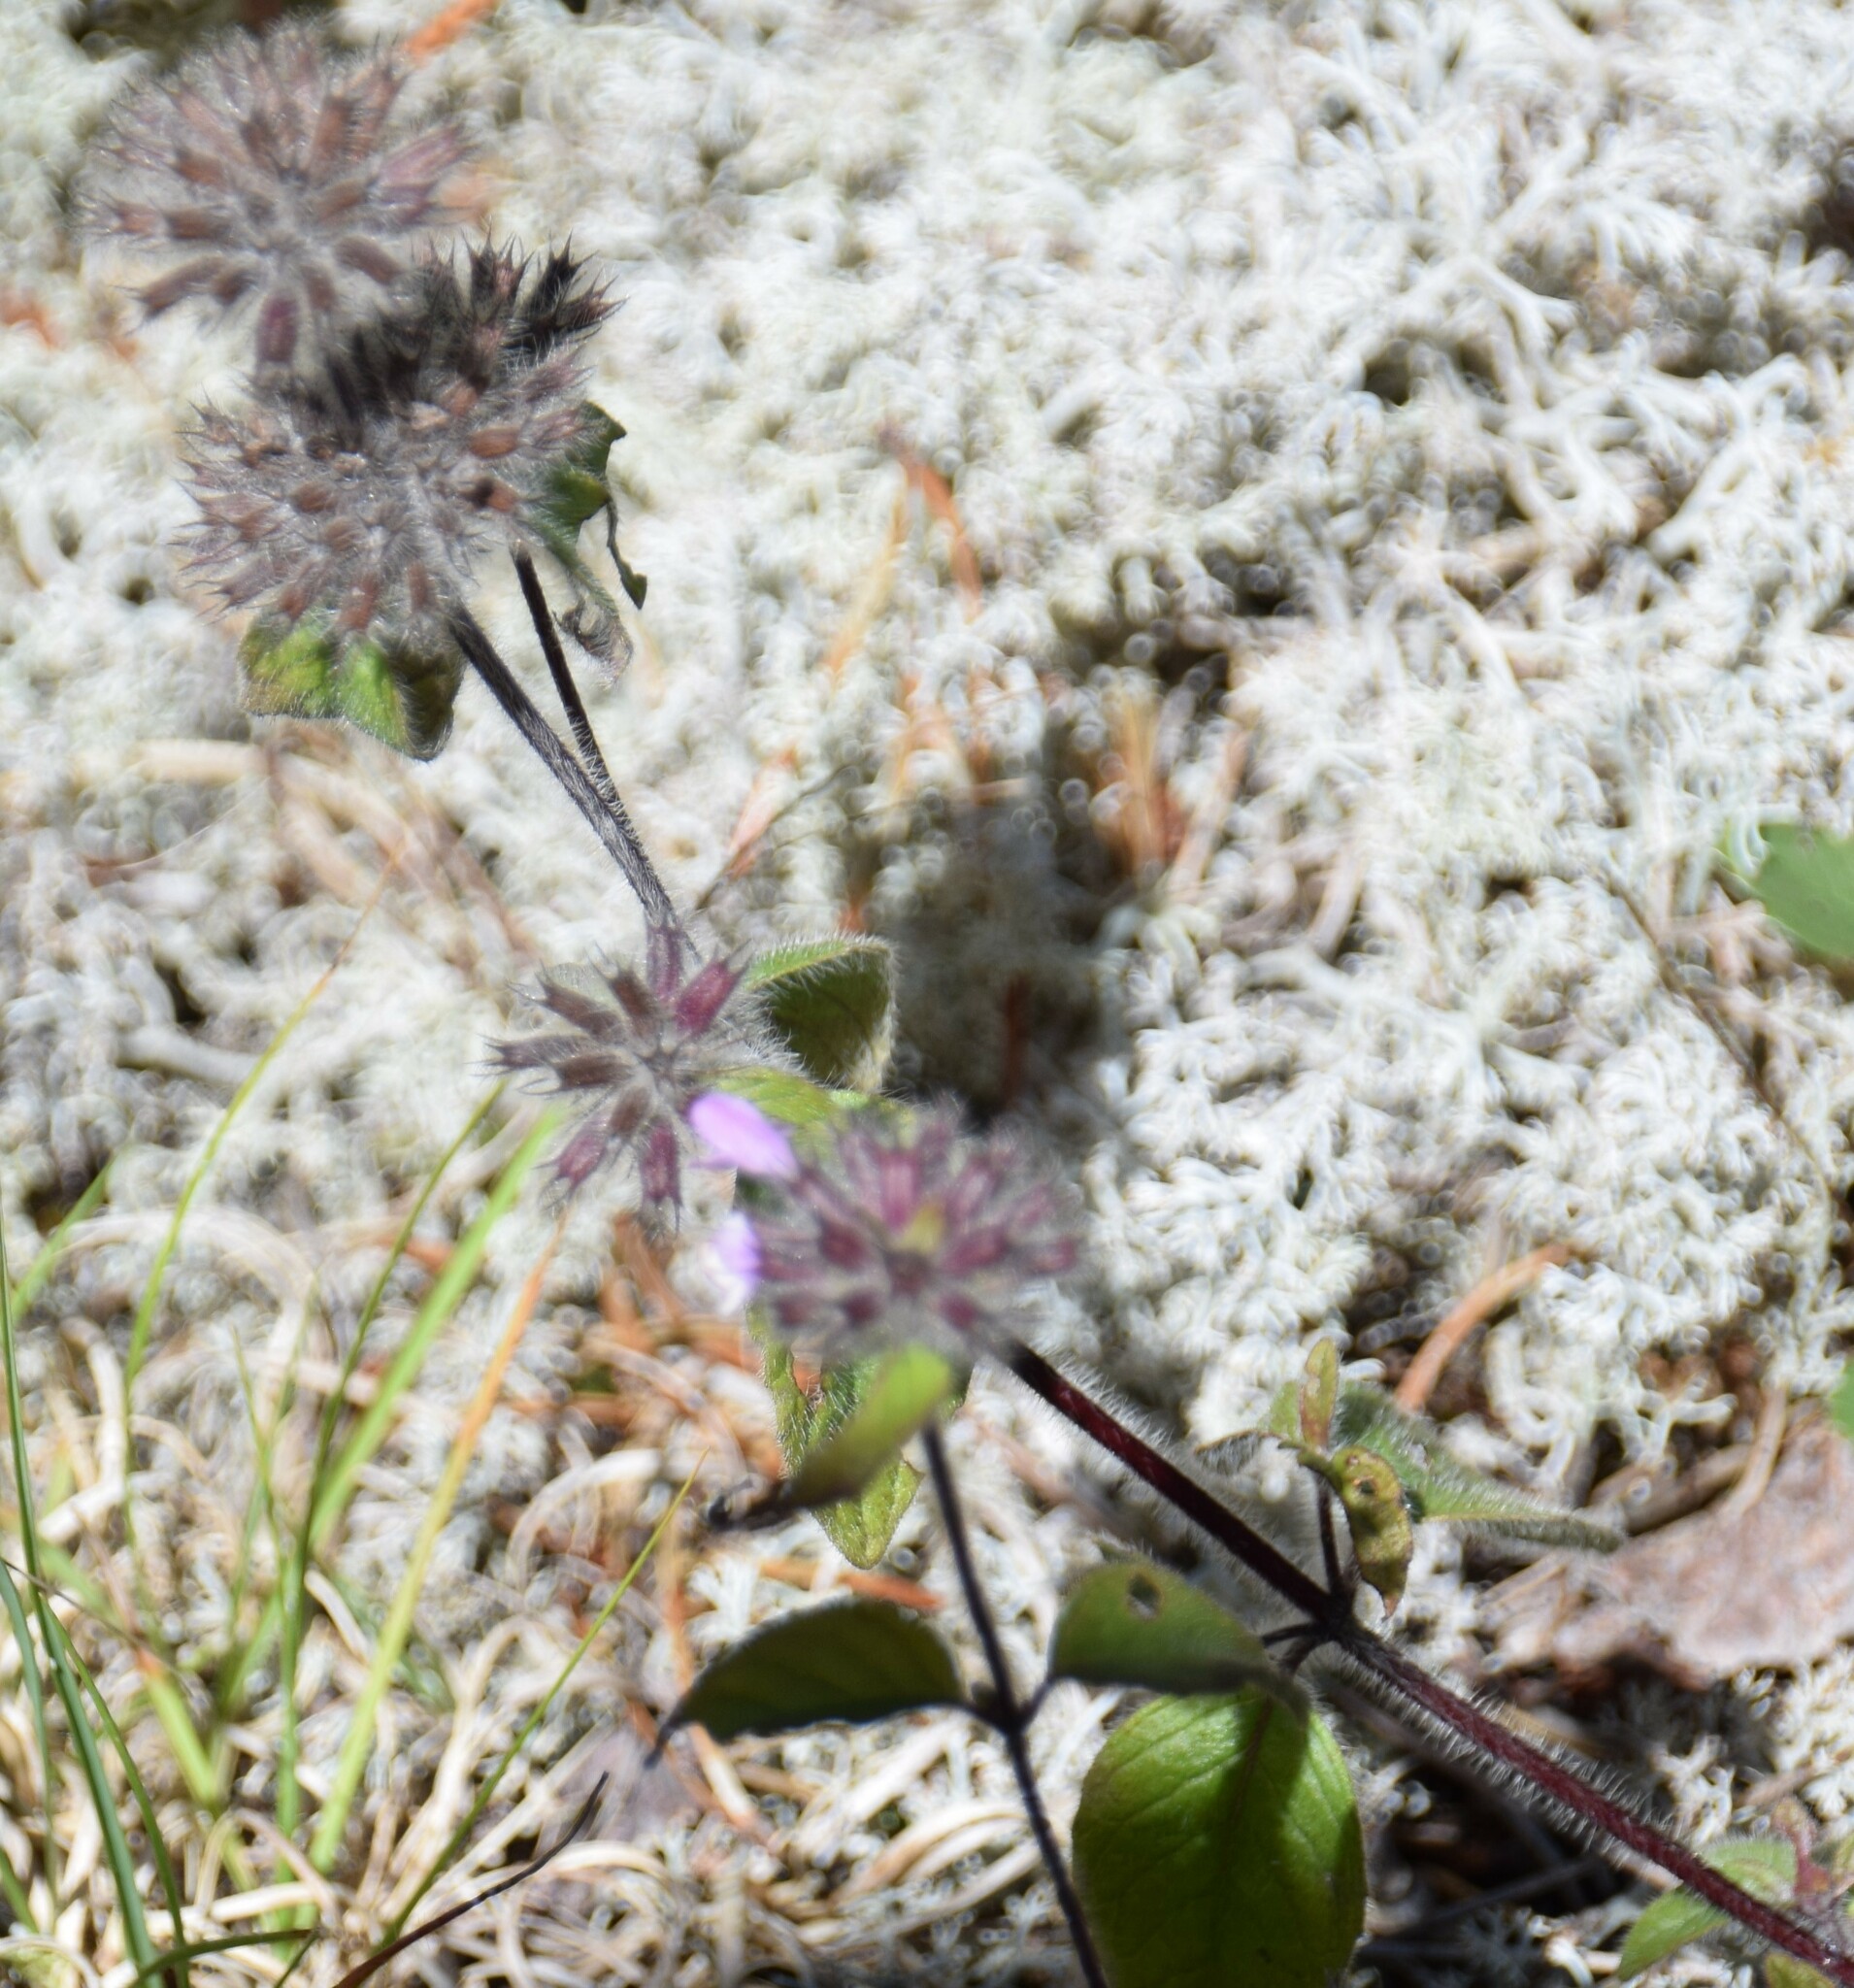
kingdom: Plantae
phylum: Tracheophyta
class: Magnoliopsida
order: Lamiales
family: Lamiaceae
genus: Clinopodium
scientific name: Clinopodium vulgare
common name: Wild basil
